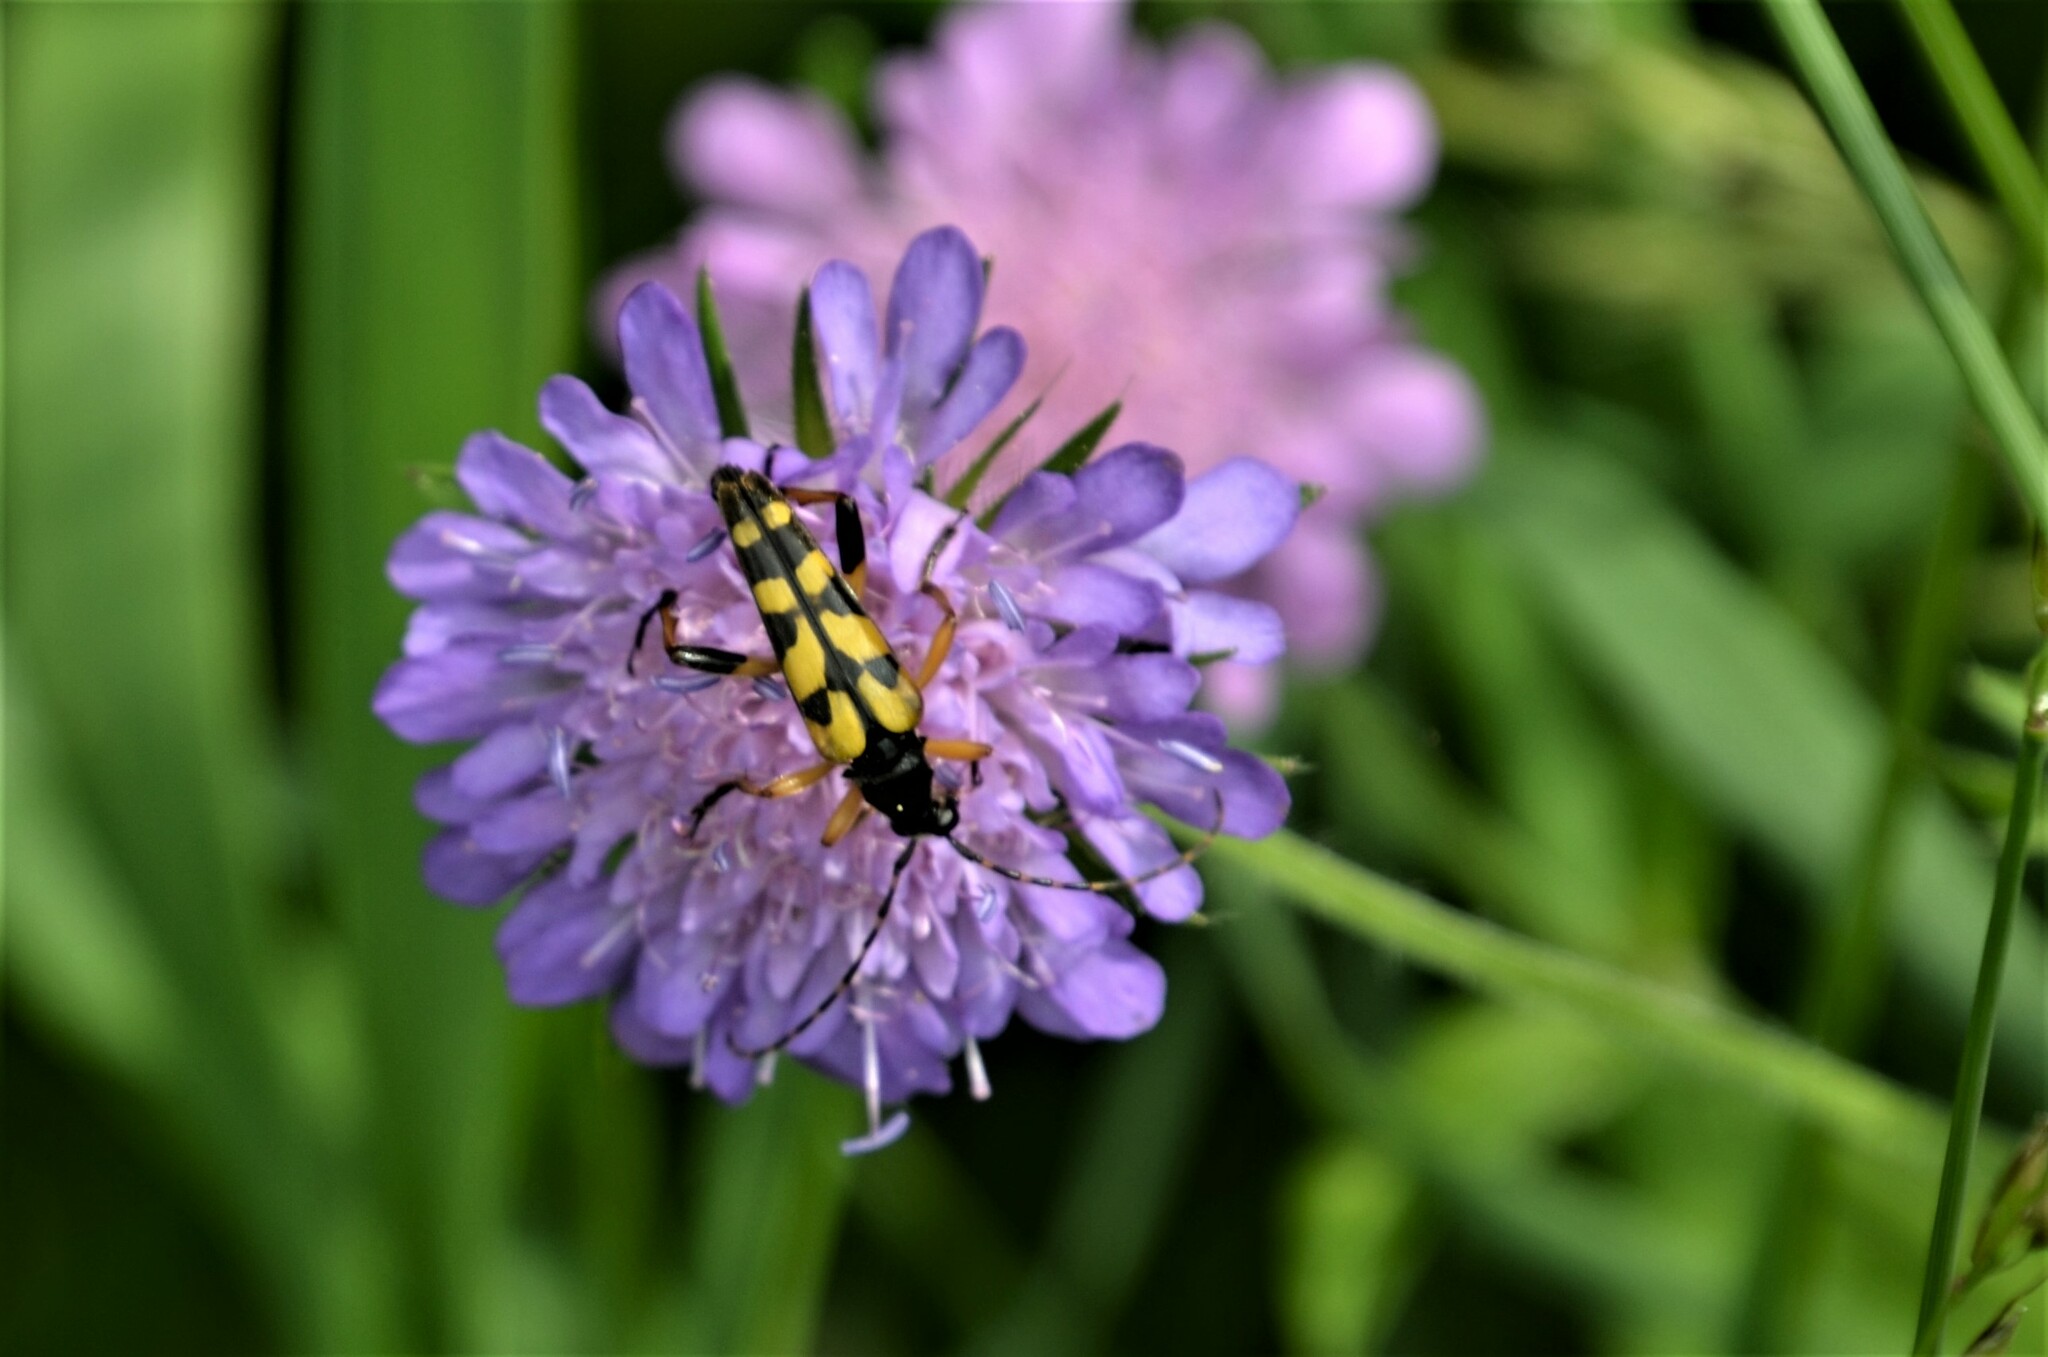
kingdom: Animalia
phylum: Arthropoda
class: Insecta
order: Coleoptera
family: Cerambycidae
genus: Rutpela
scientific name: Rutpela maculata
